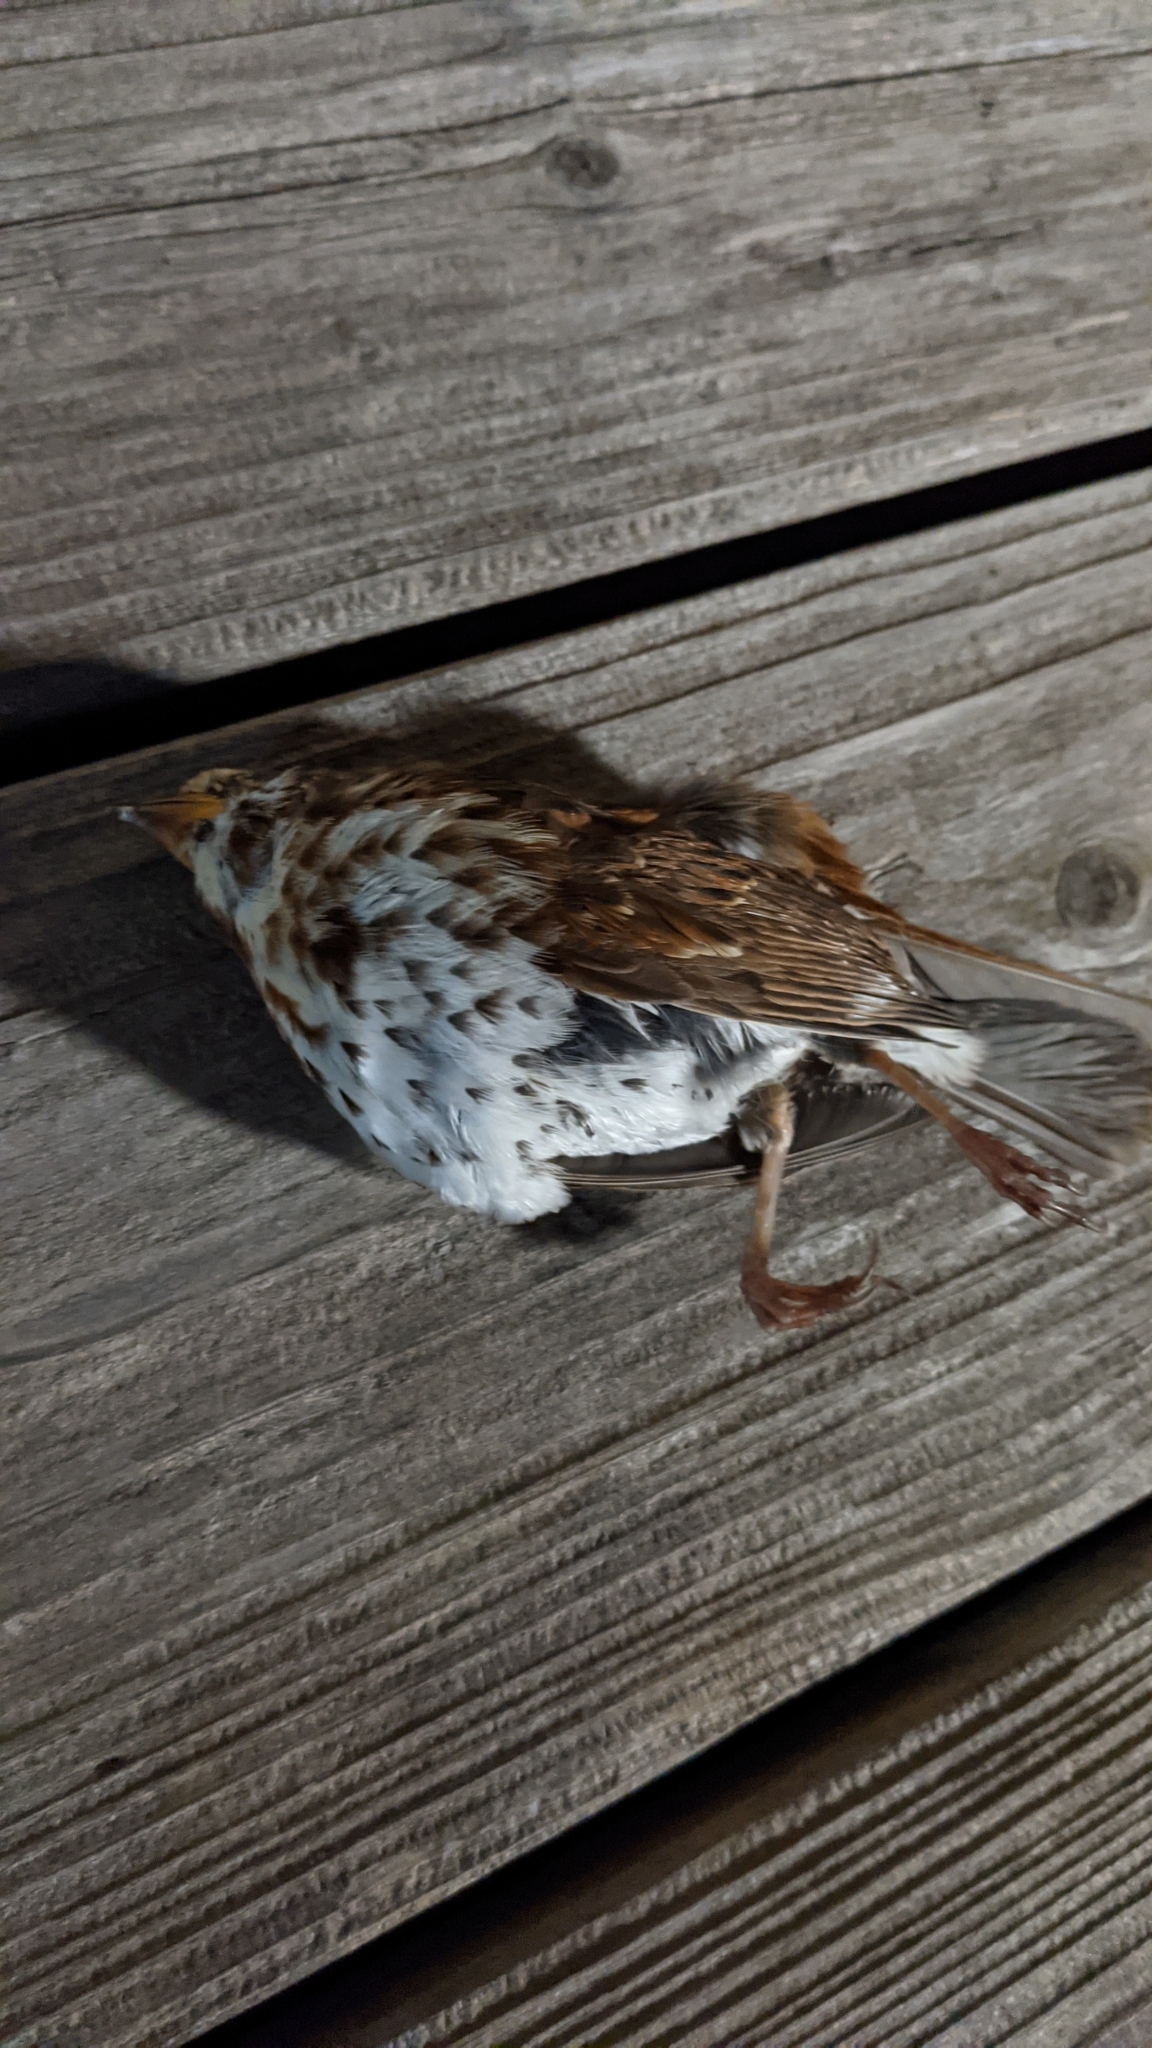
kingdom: Animalia
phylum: Chordata
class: Aves
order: Passeriformes
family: Passerellidae
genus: Passerella
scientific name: Passerella iliaca
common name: Fox sparrow
